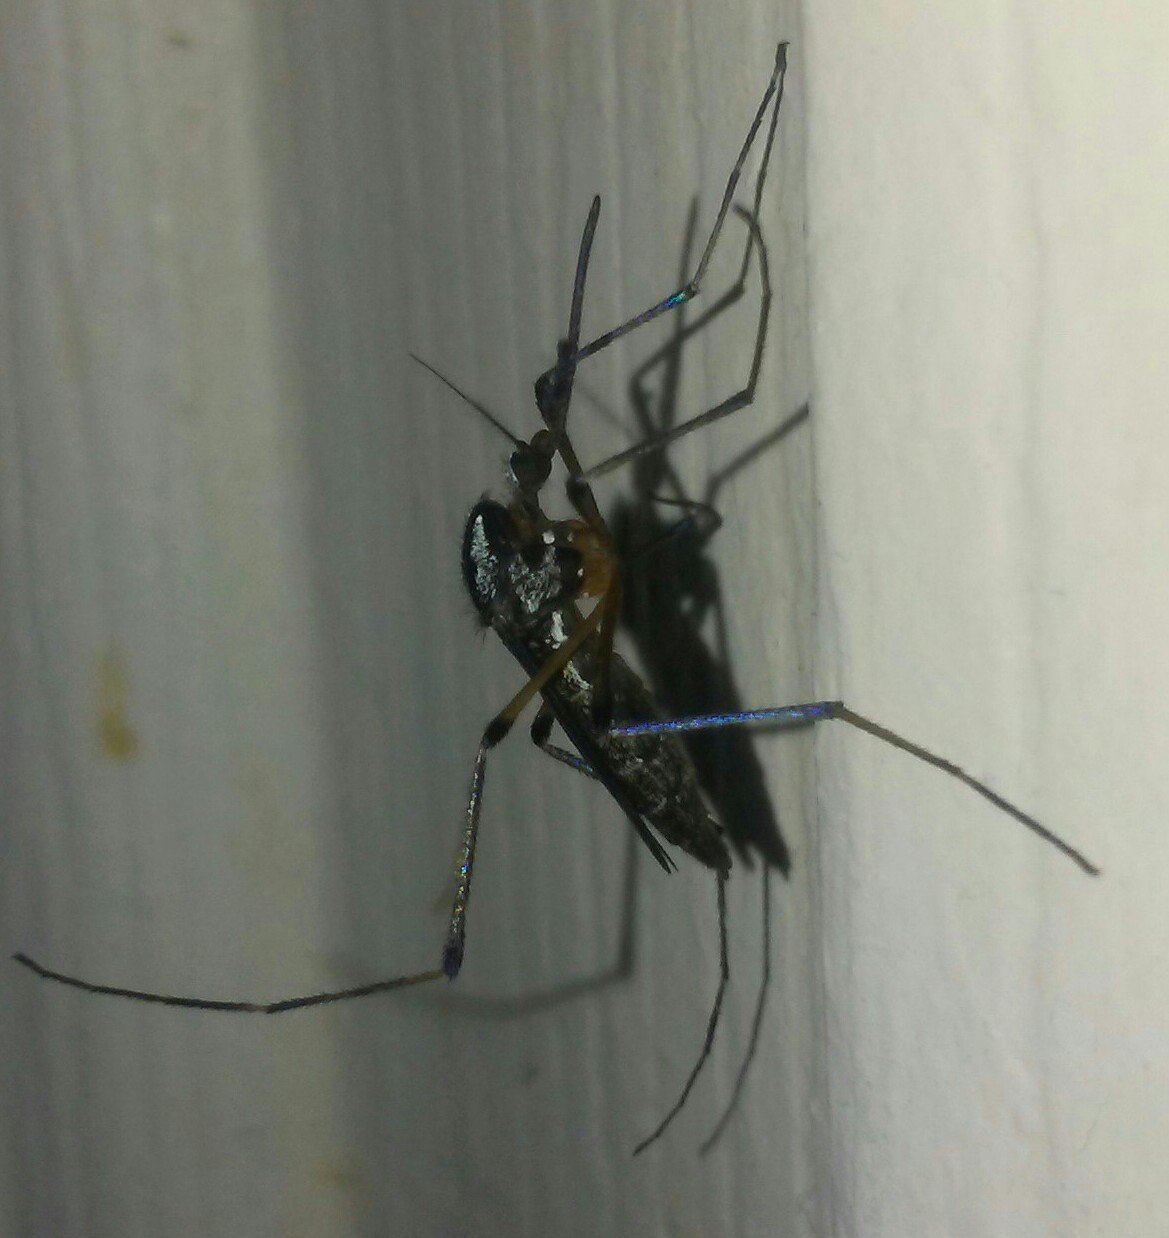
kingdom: Animalia
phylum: Arthropoda
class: Insecta
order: Diptera
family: Culicidae
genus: Psorophora
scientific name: Psorophora howardii
